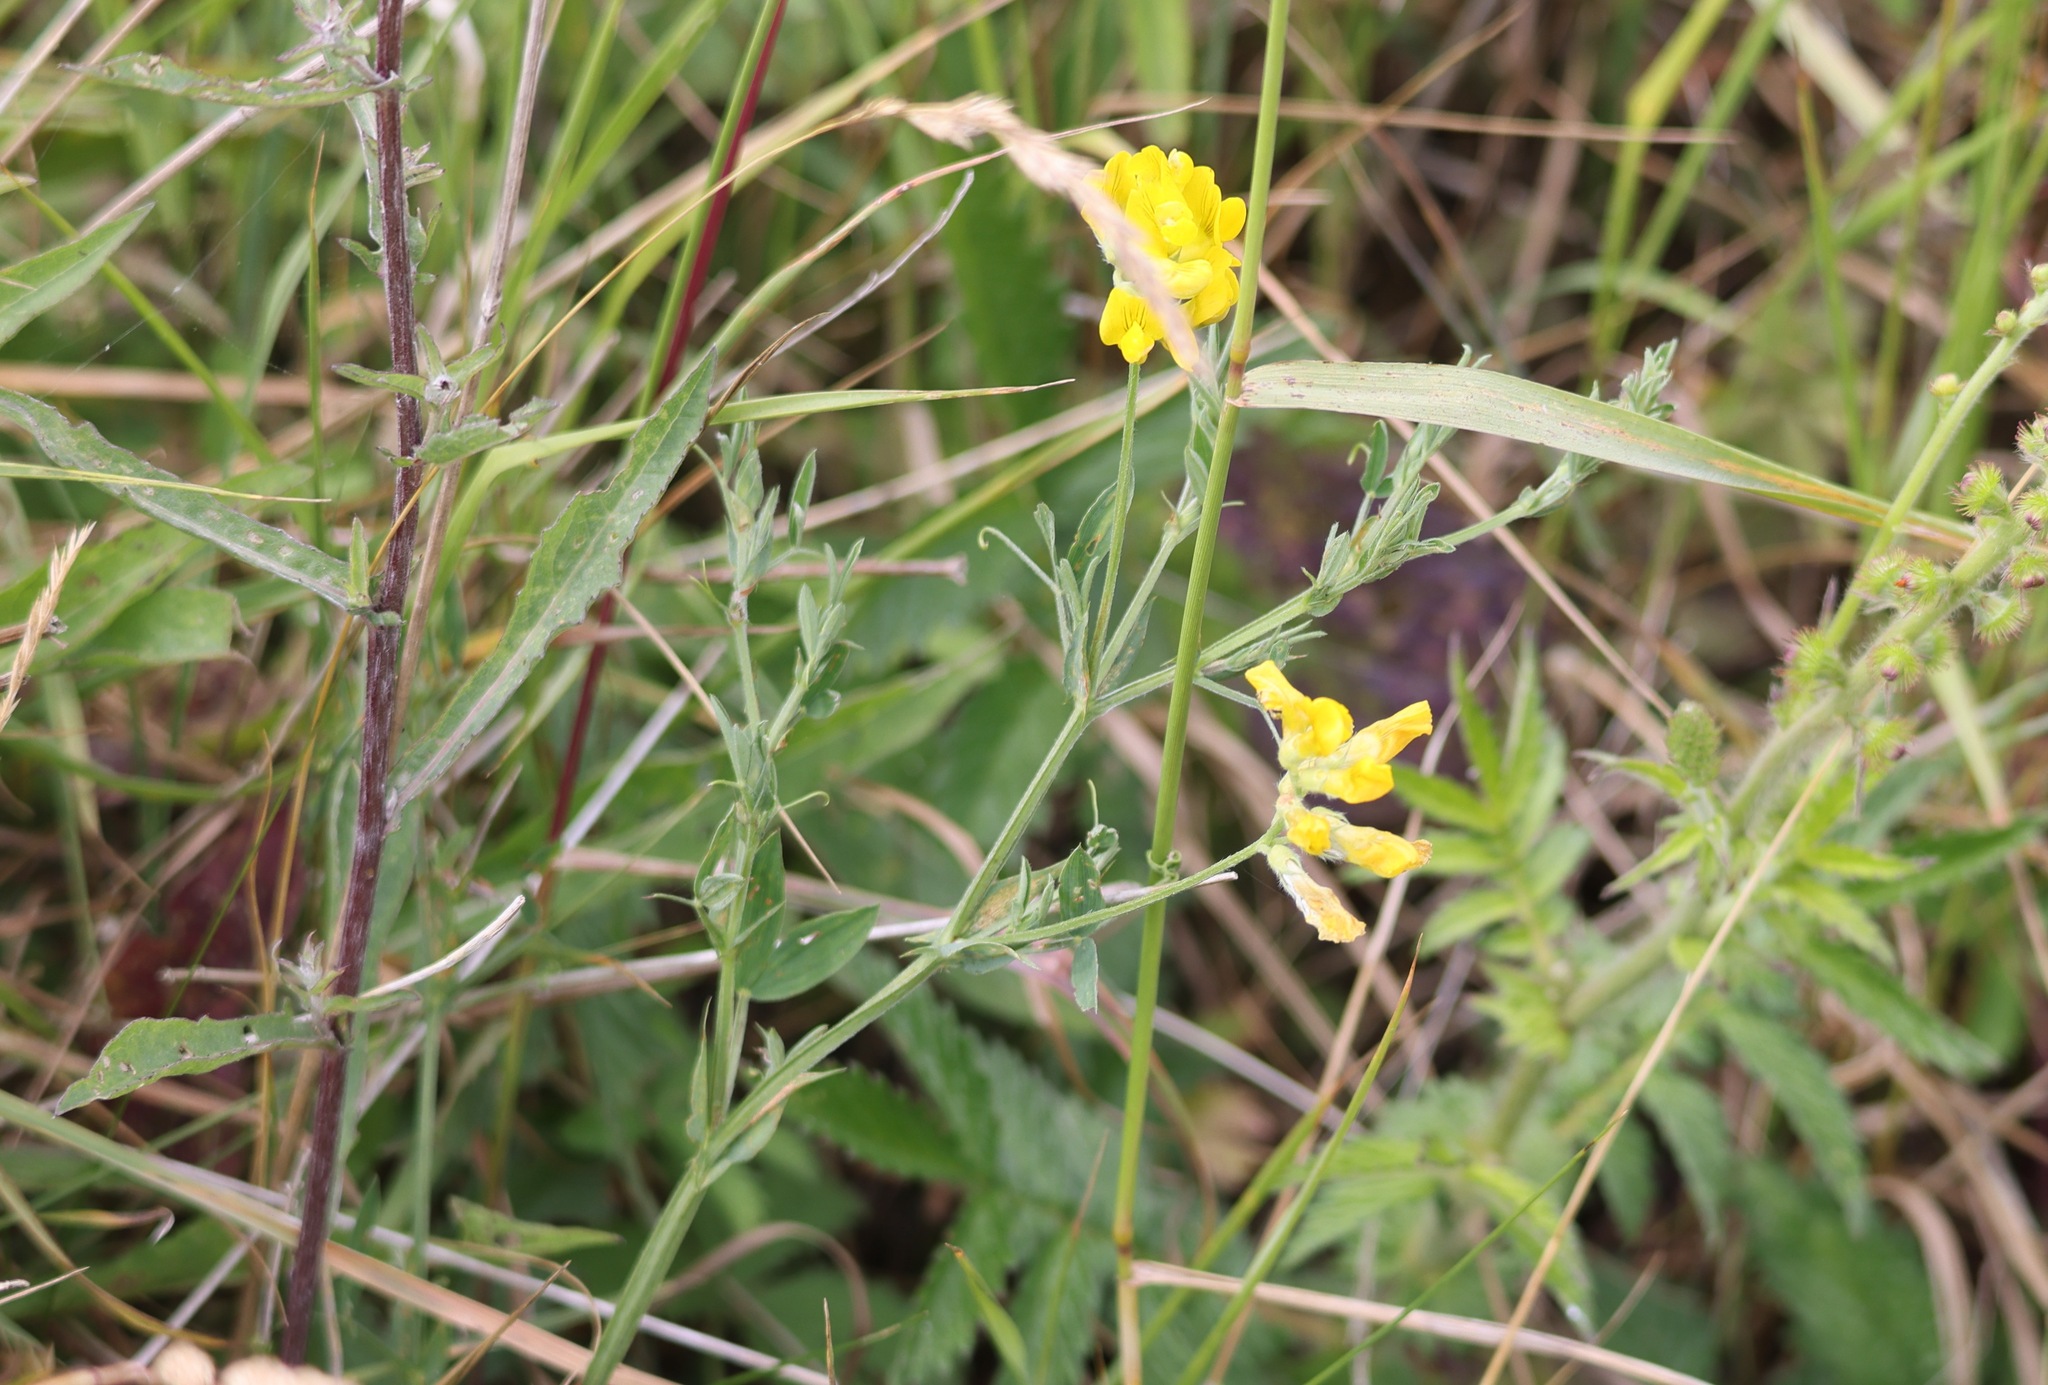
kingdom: Plantae
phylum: Tracheophyta
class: Magnoliopsida
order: Fabales
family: Fabaceae
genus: Lathyrus
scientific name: Lathyrus pratensis
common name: Meadow vetchling
